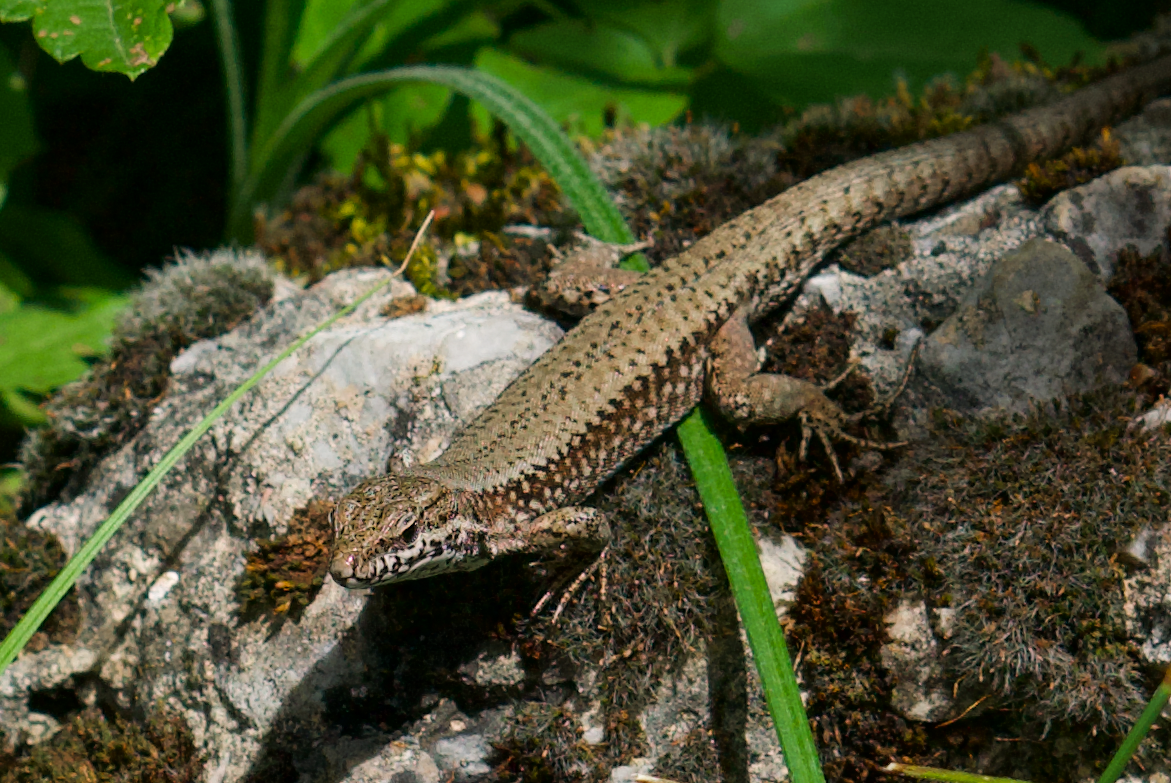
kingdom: Animalia
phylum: Chordata
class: Squamata
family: Lacertidae
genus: Podarcis
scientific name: Podarcis muralis
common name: Common wall lizard
